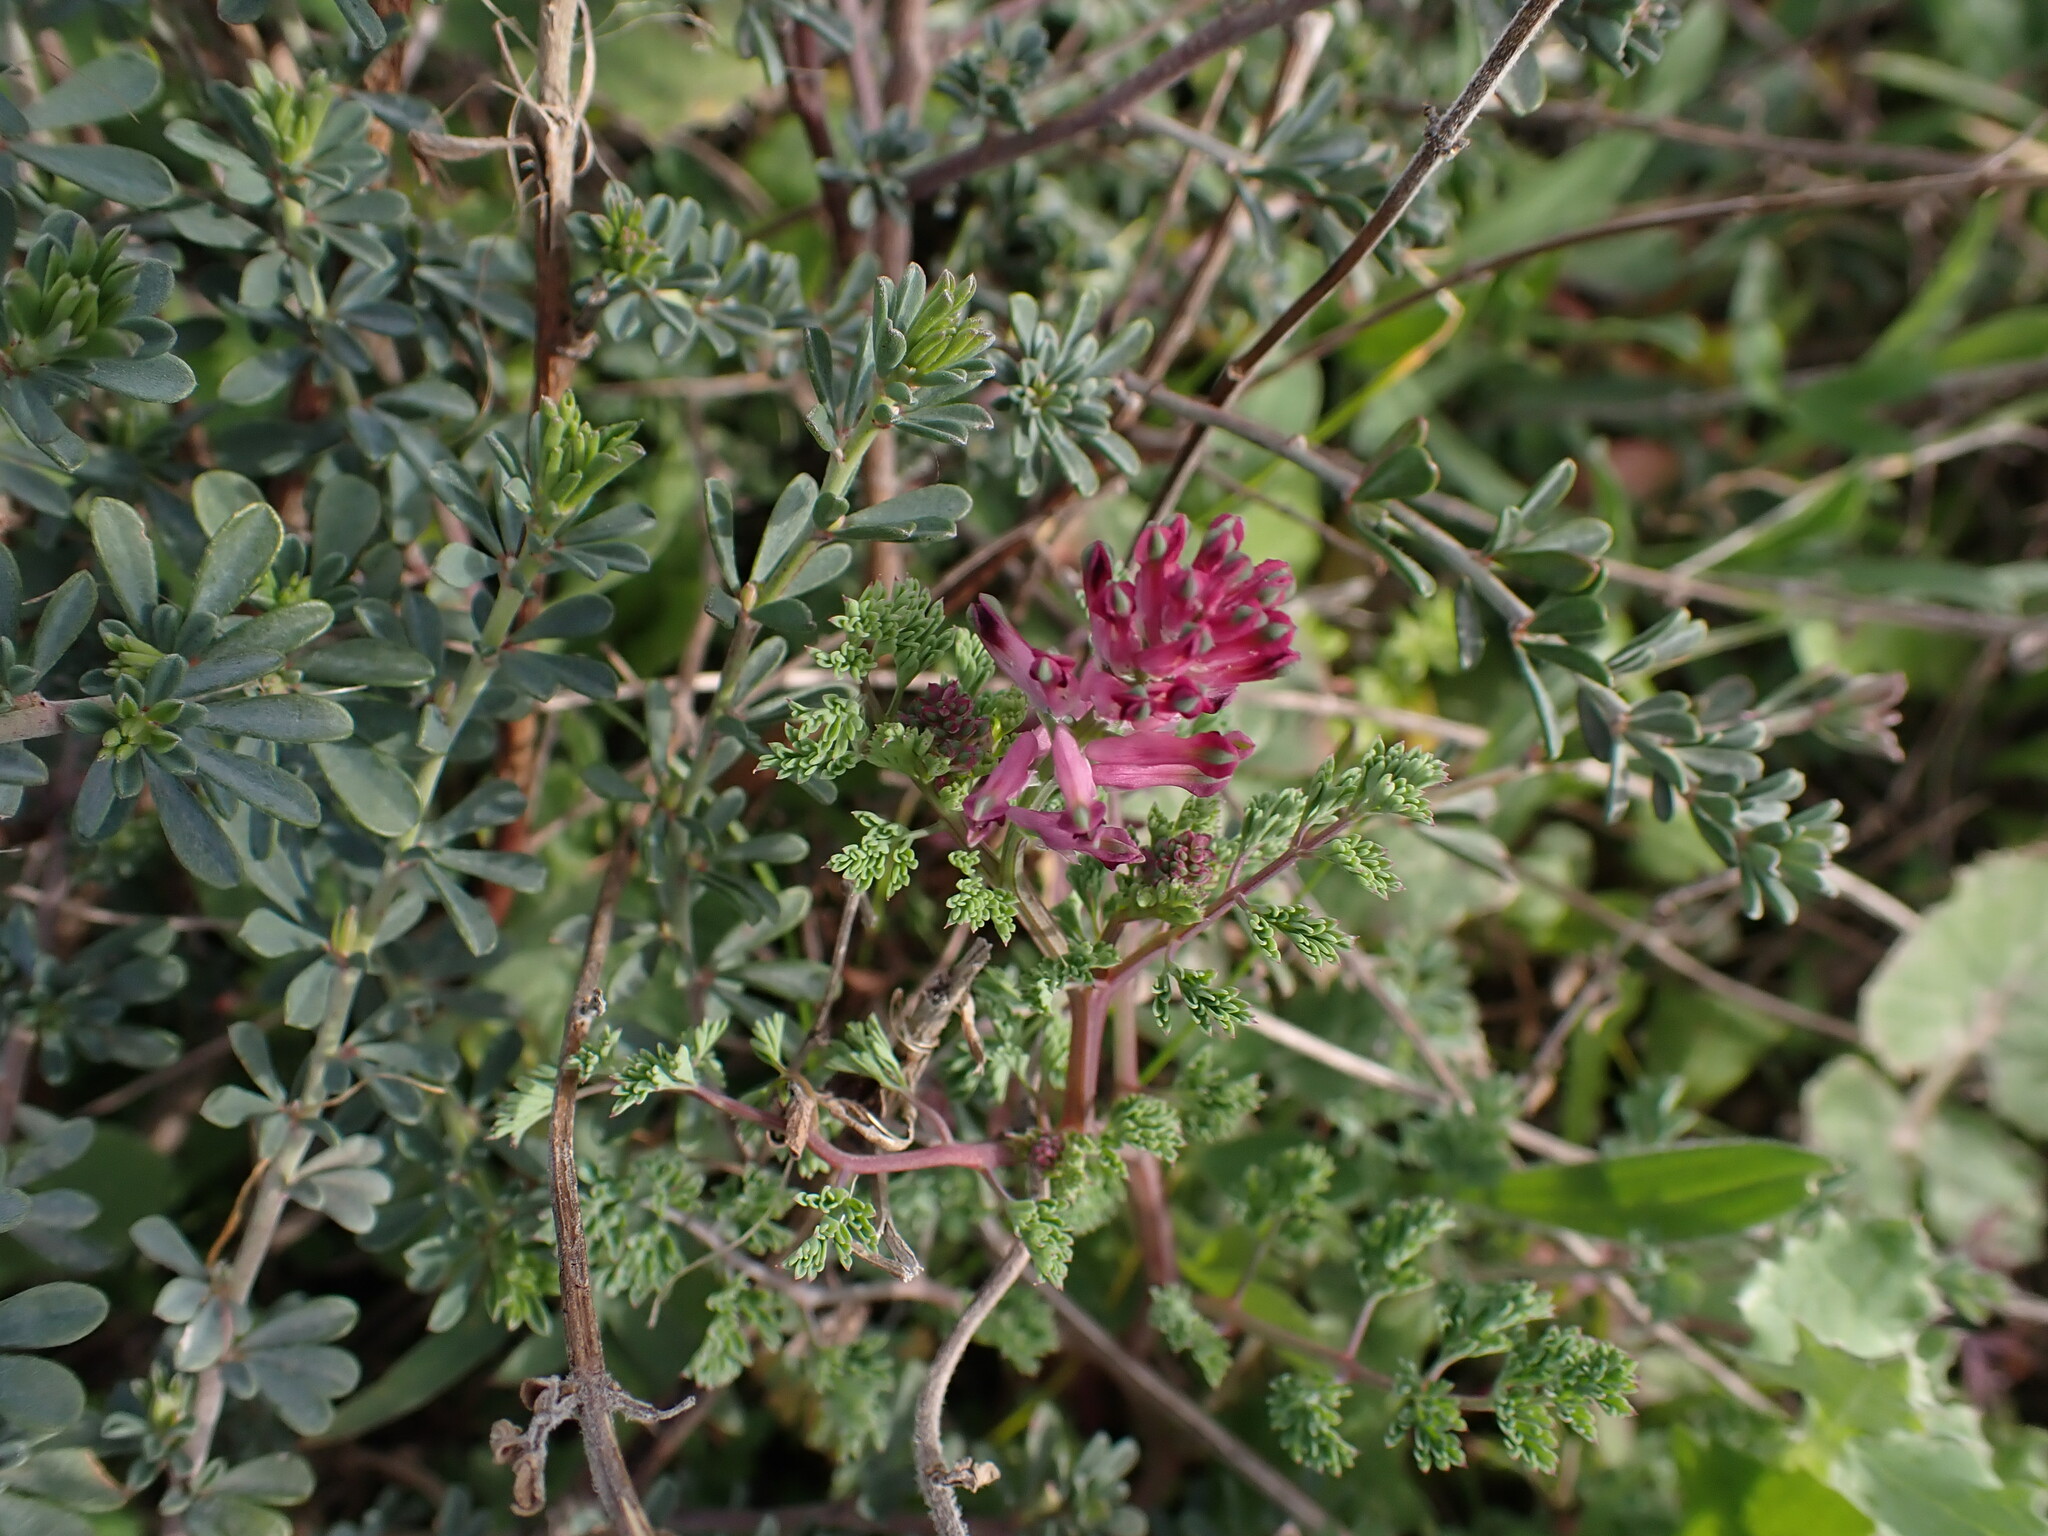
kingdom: Plantae
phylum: Tracheophyta
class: Magnoliopsida
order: Ranunculales
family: Papaveraceae
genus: Fumaria
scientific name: Fumaria officinalis
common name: Common fumitory
